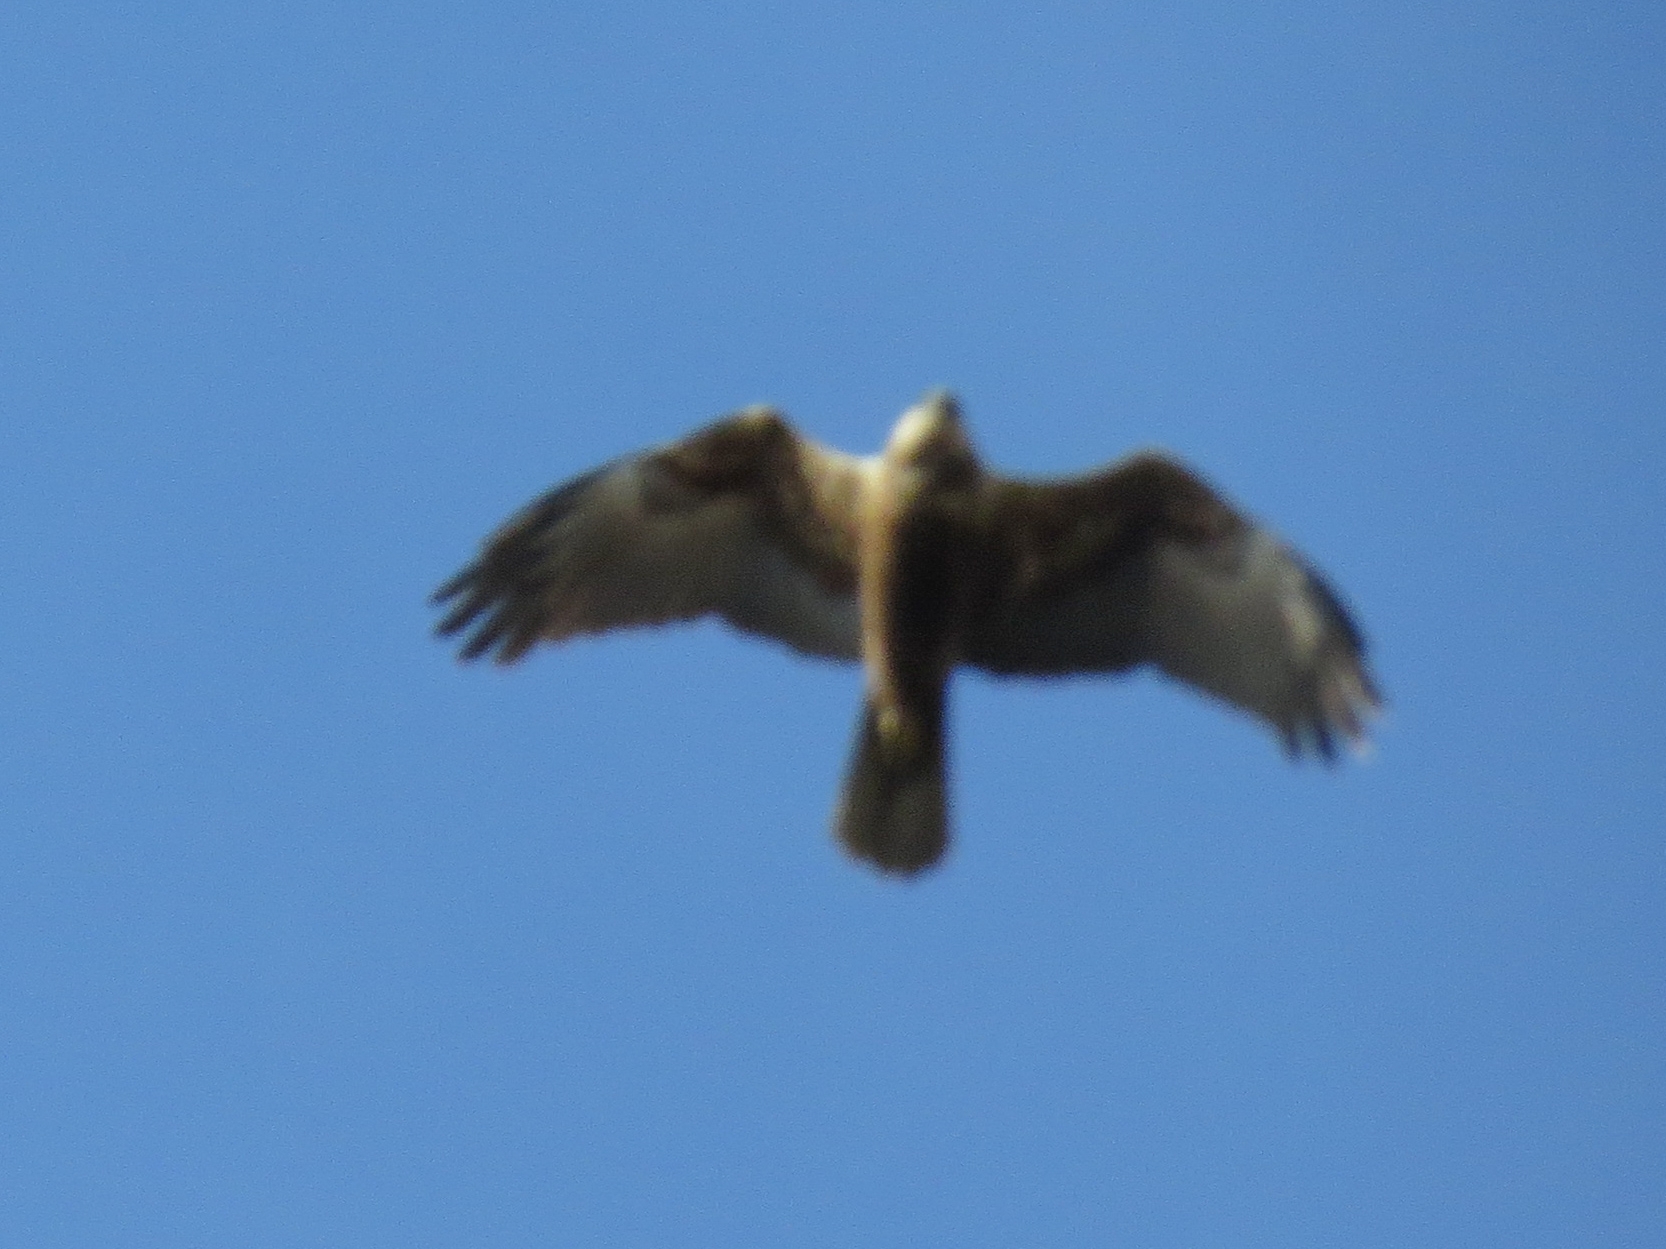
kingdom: Animalia
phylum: Chordata
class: Aves
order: Accipitriformes
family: Accipitridae
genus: Circus
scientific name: Circus aeruginosus
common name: Western marsh harrier
